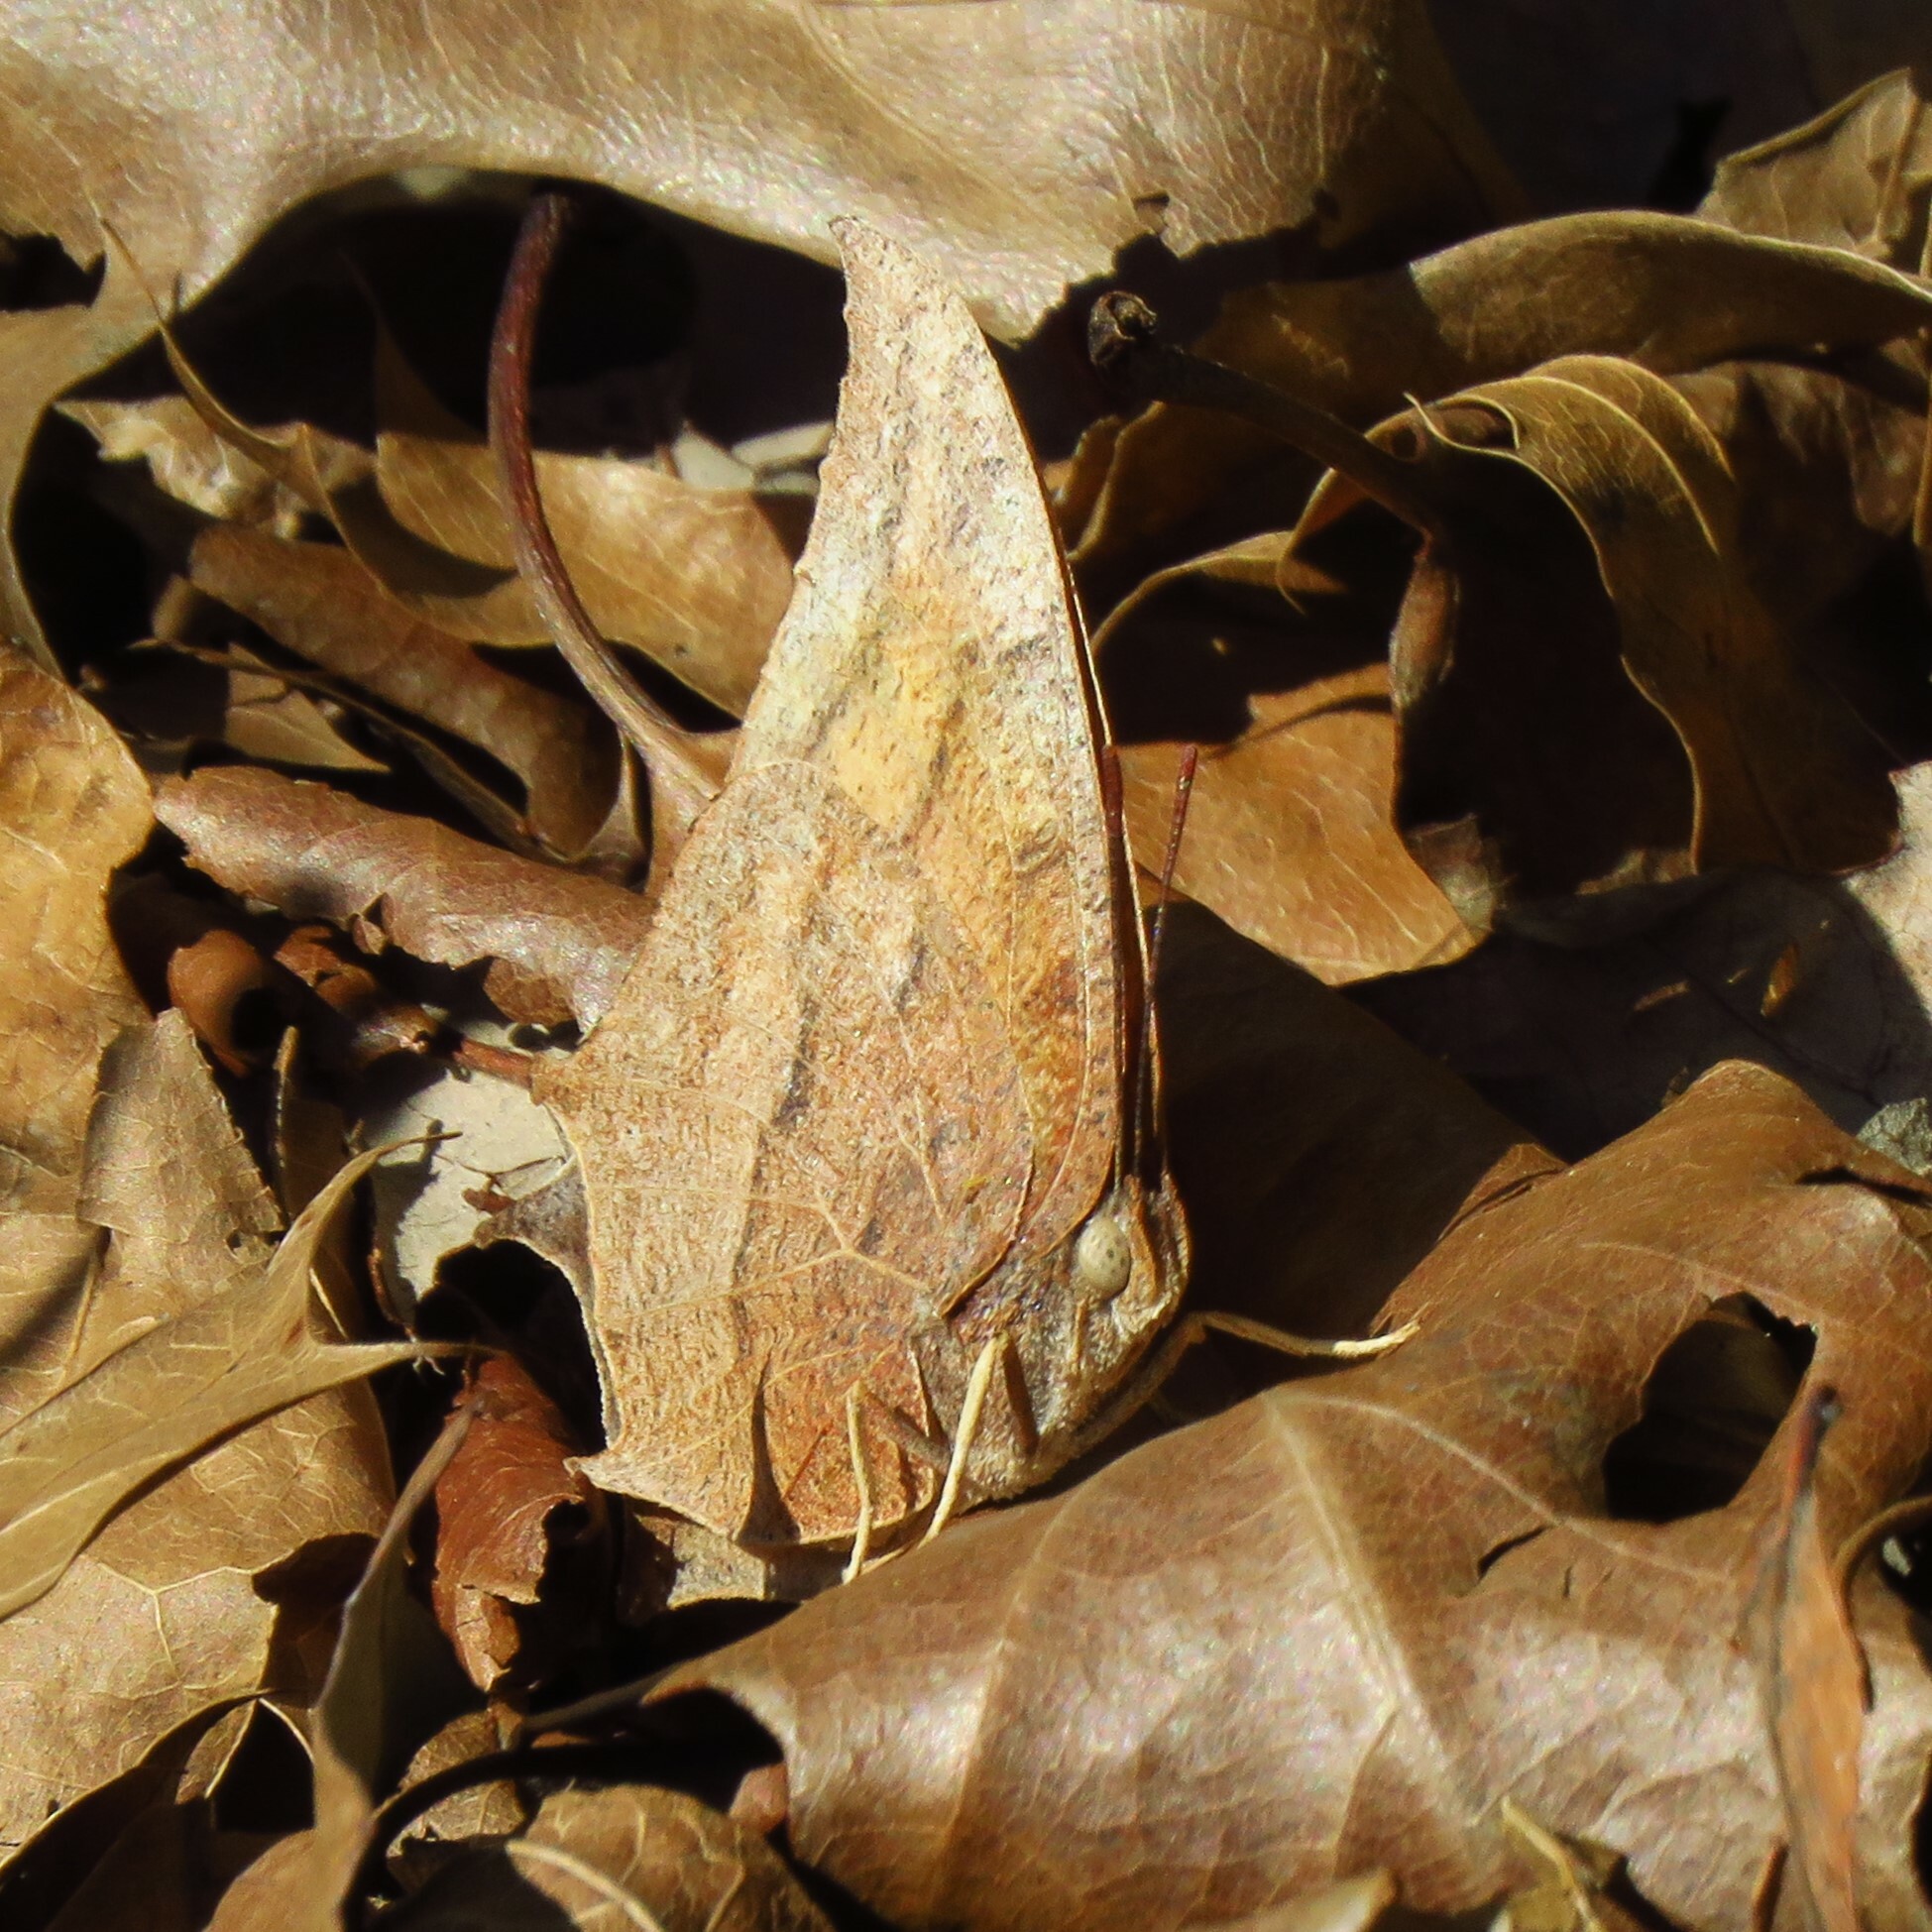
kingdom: Animalia
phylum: Arthropoda
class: Insecta
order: Lepidoptera
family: Nymphalidae
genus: Anaea
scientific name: Anaea andria
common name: Goatweed leafwing
